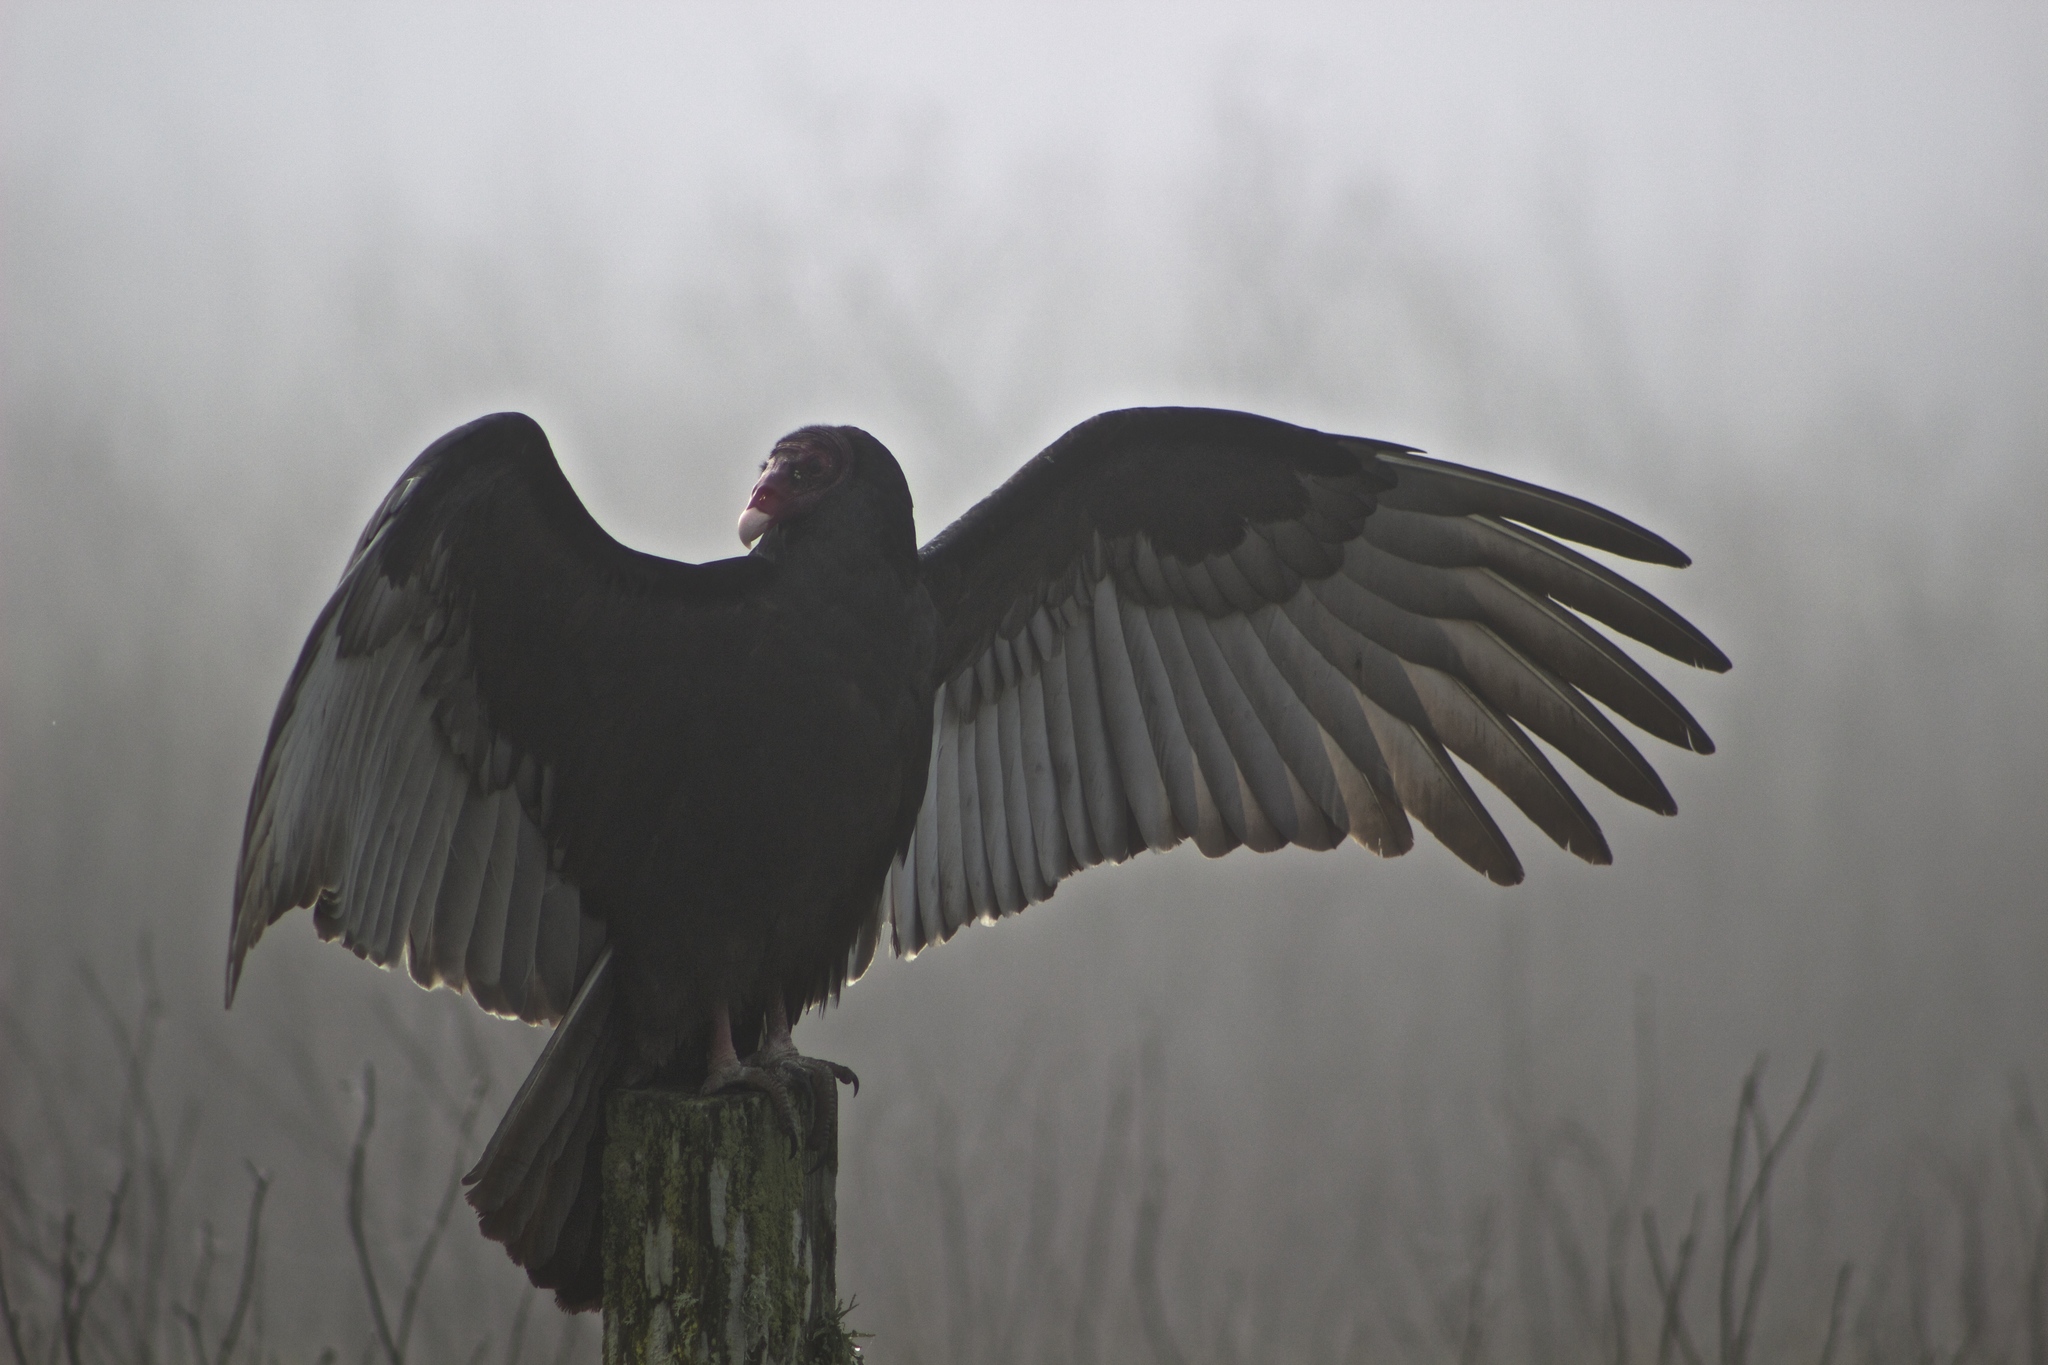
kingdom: Animalia
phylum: Chordata
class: Aves
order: Accipitriformes
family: Cathartidae
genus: Cathartes
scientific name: Cathartes aura
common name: Turkey vulture
